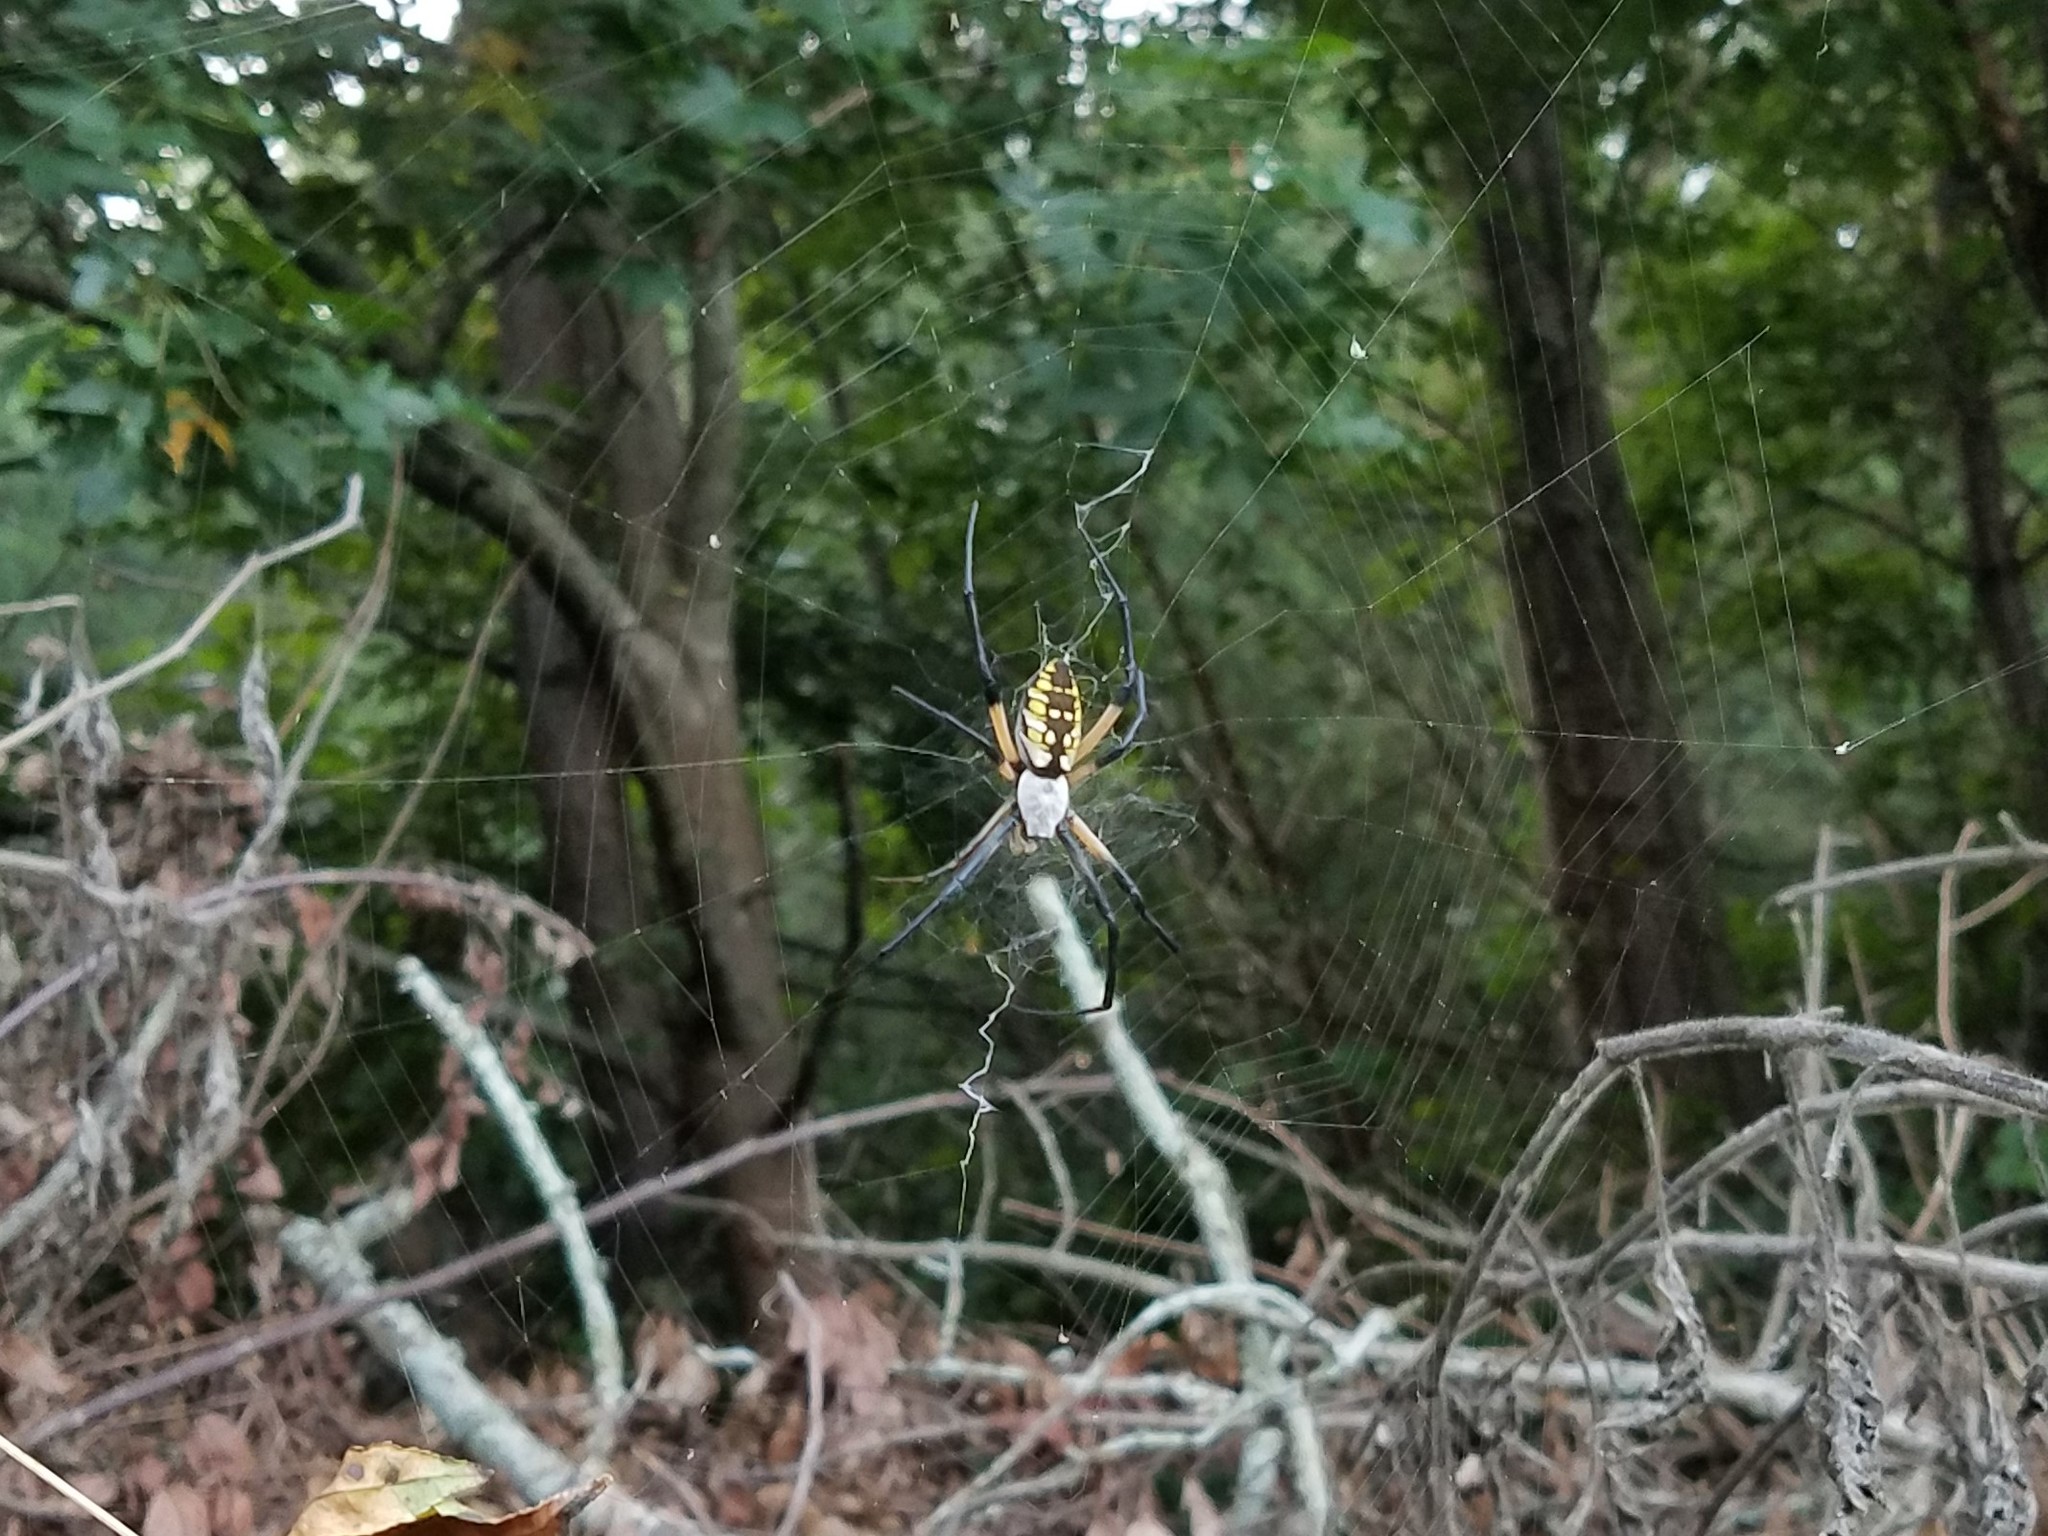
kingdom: Animalia
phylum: Arthropoda
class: Arachnida
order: Araneae
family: Araneidae
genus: Argiope
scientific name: Argiope aurantia
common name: Orb weavers
